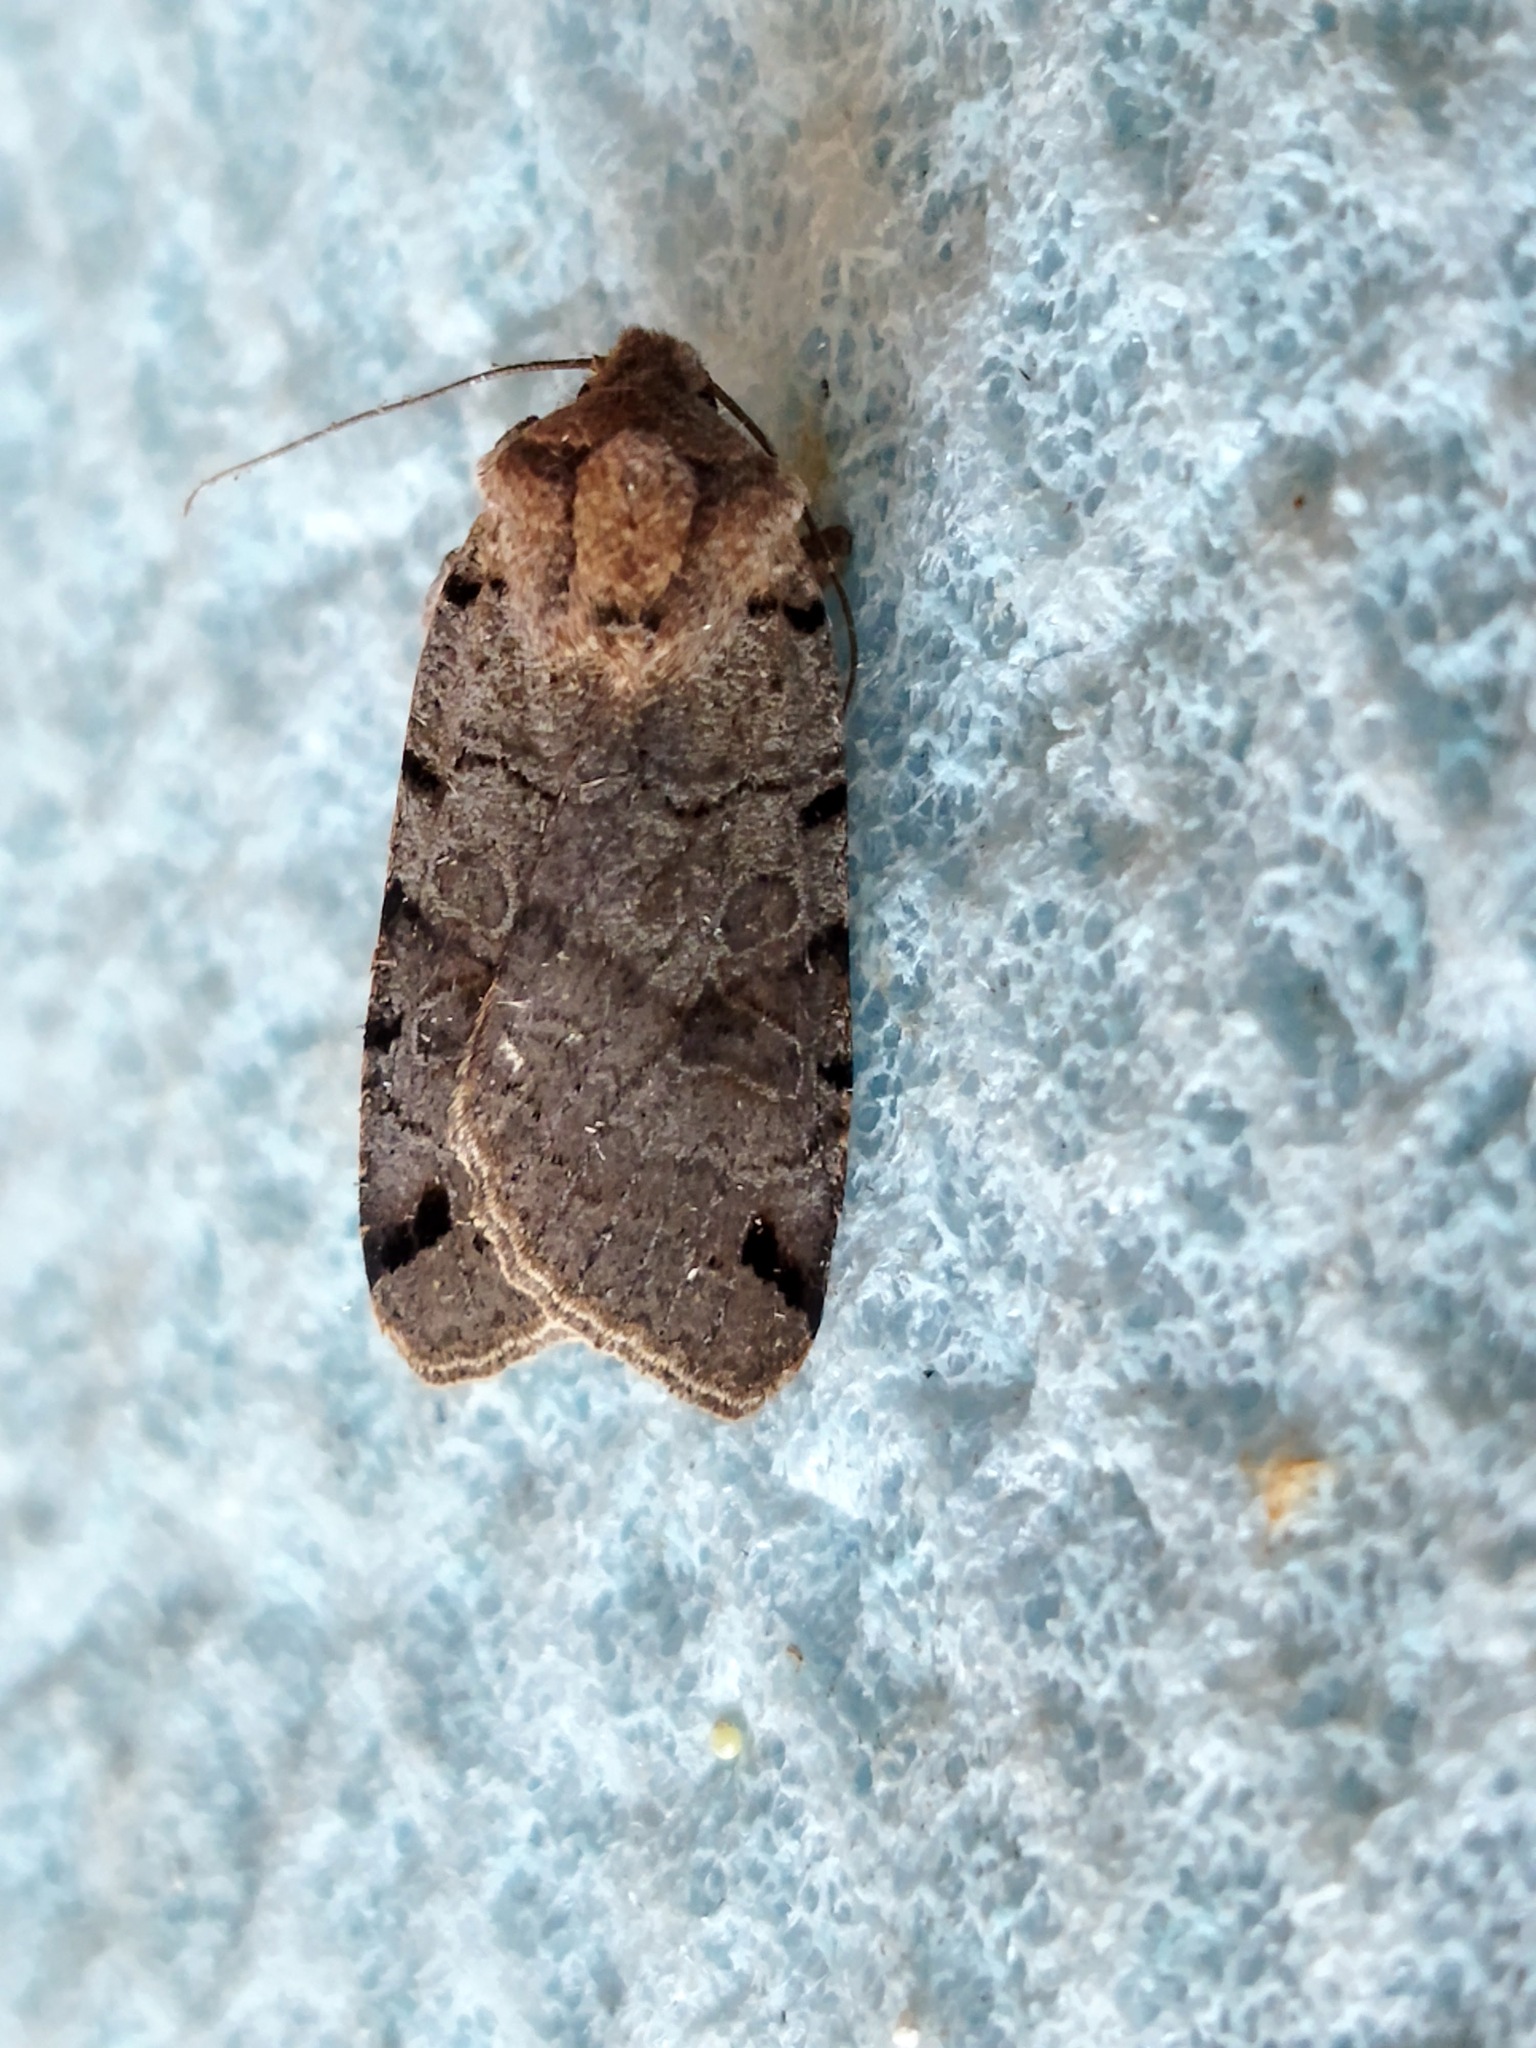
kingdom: Animalia
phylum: Arthropoda
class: Insecta
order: Lepidoptera
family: Noctuidae
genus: Agrochola
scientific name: Agrochola litura
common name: Brown-spot pinion
